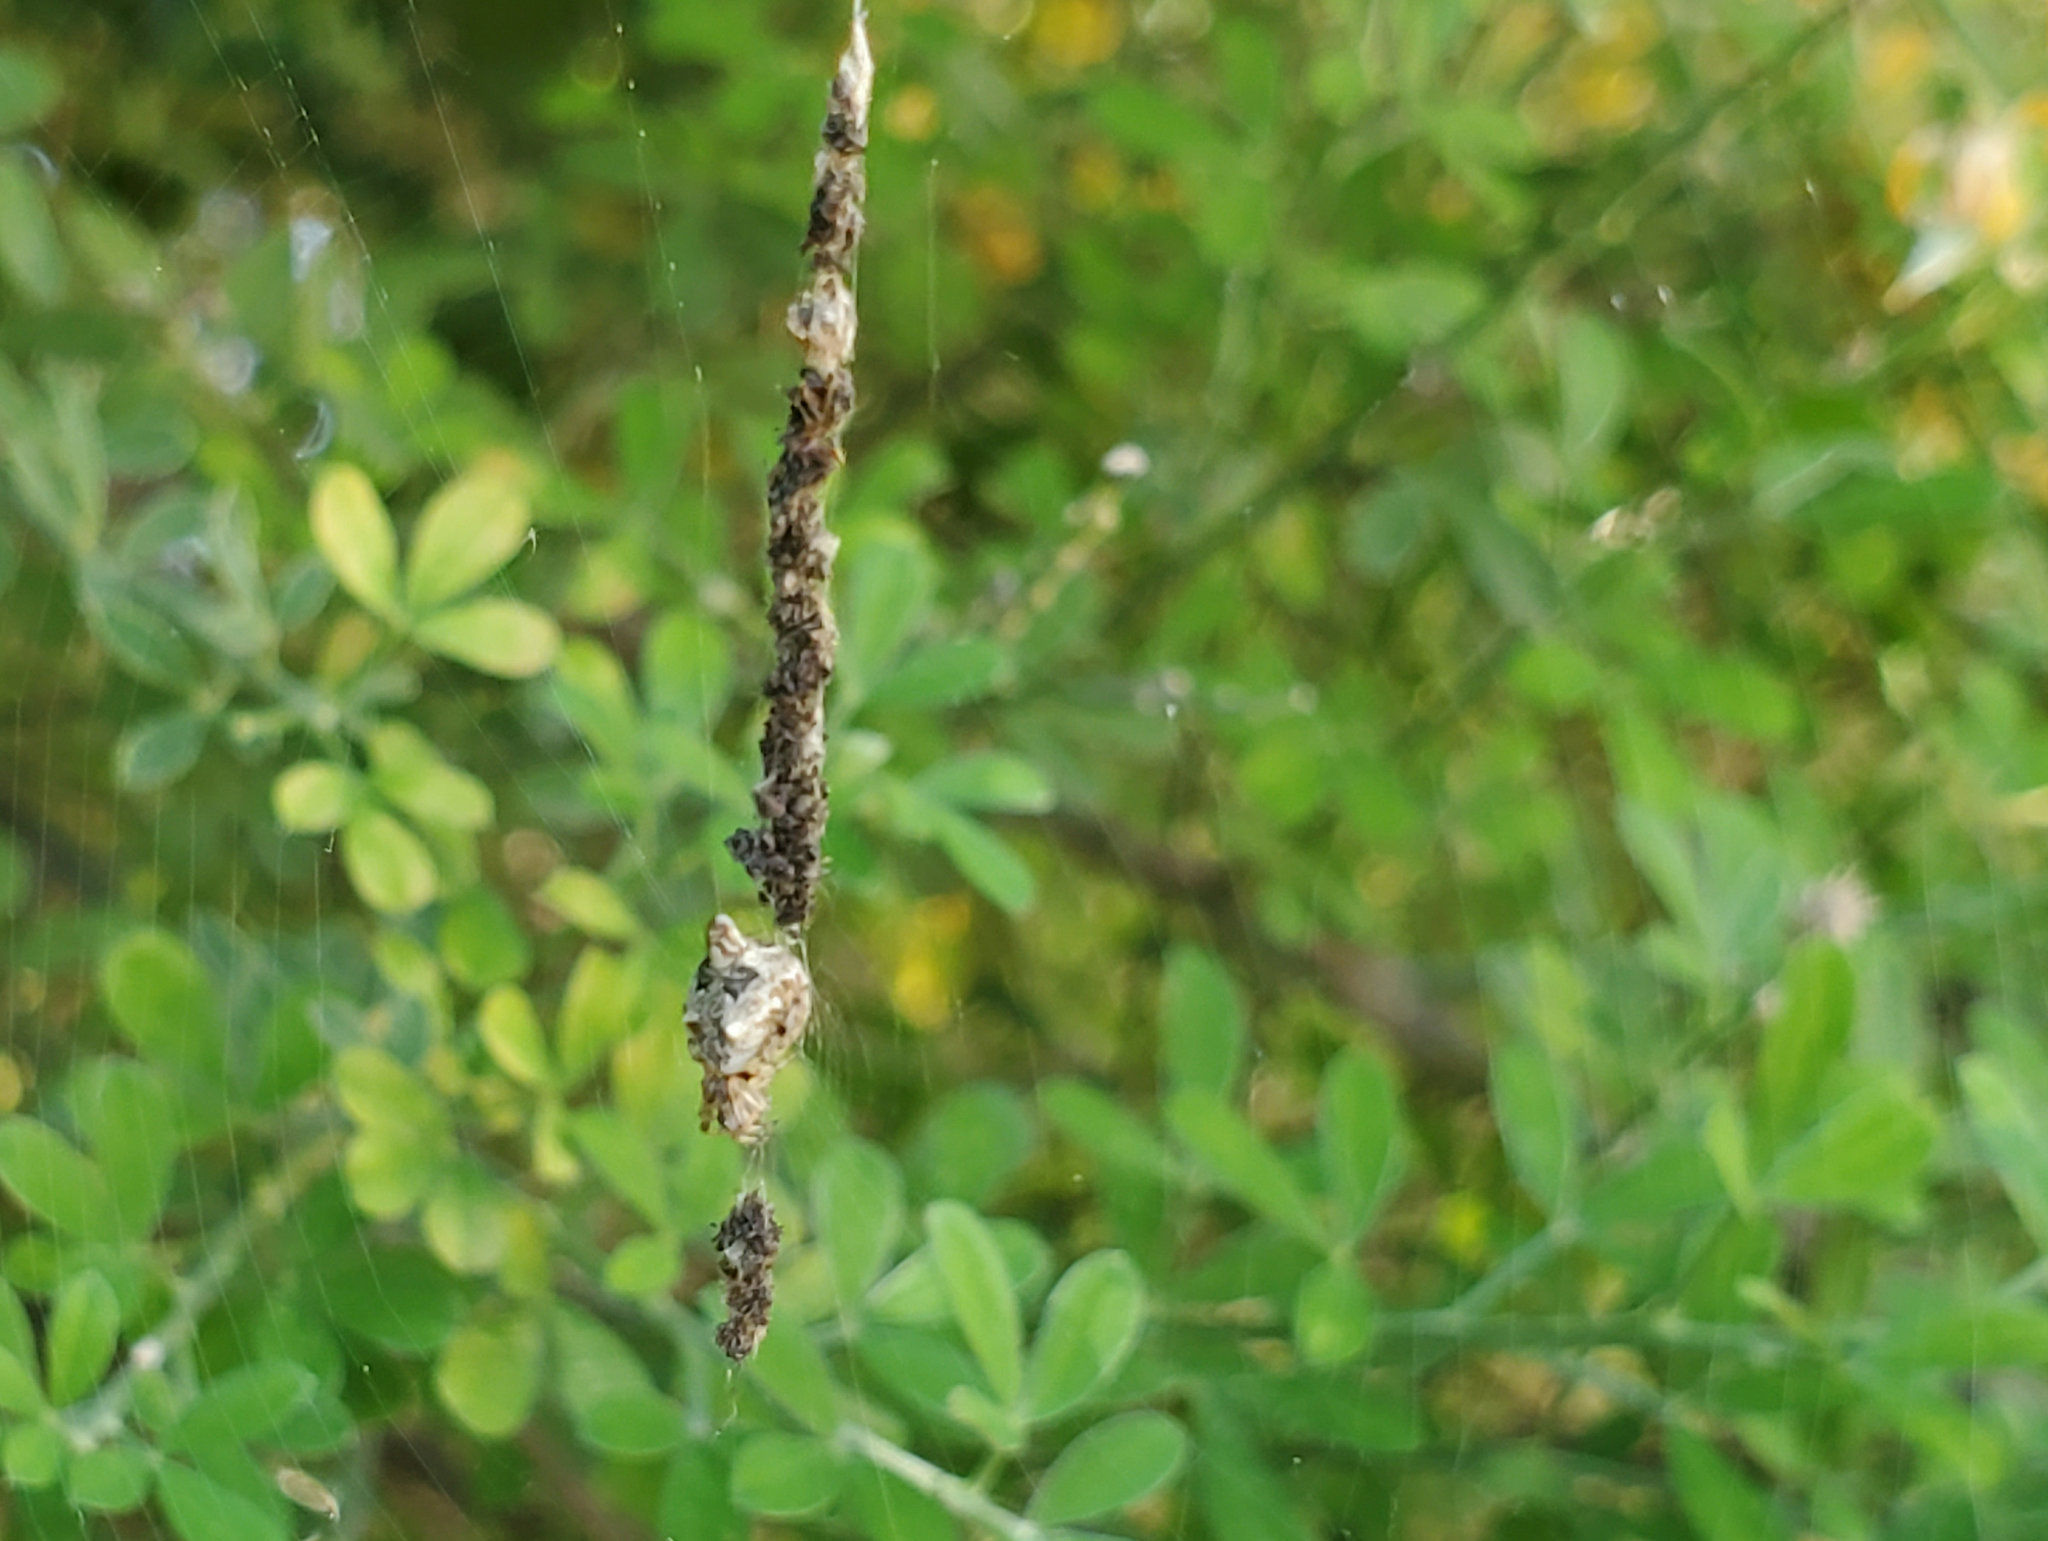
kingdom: Animalia
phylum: Arthropoda
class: Arachnida
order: Araneae
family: Araneidae
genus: Cyclosa
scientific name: Cyclosa turbinata
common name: Orb weavers
